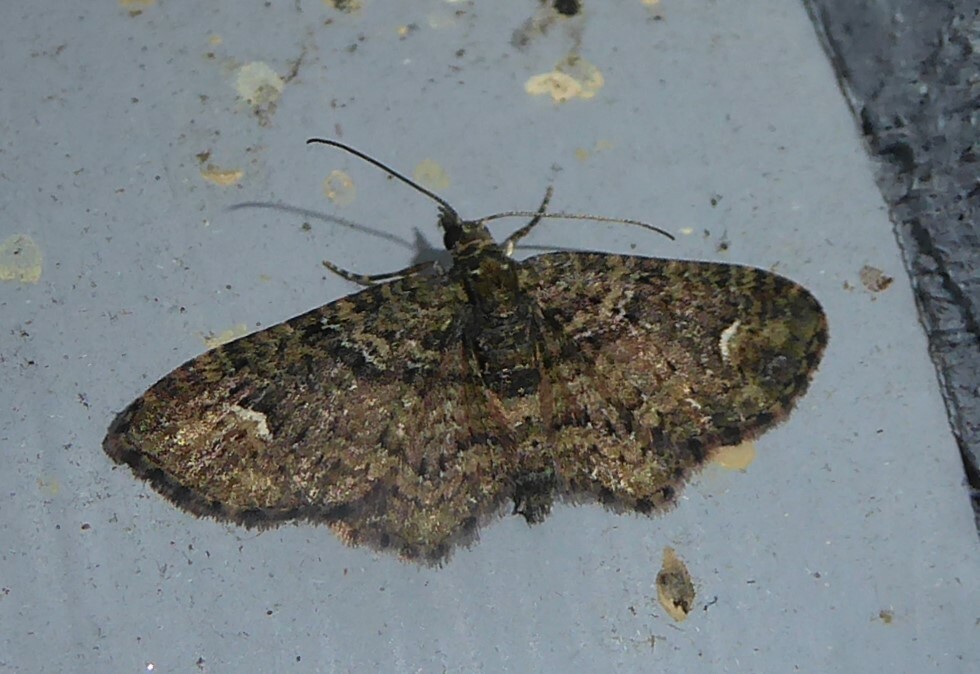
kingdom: Animalia
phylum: Arthropoda
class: Insecta
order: Lepidoptera
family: Geometridae
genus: Pasiphilodes
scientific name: Pasiphilodes testulata
